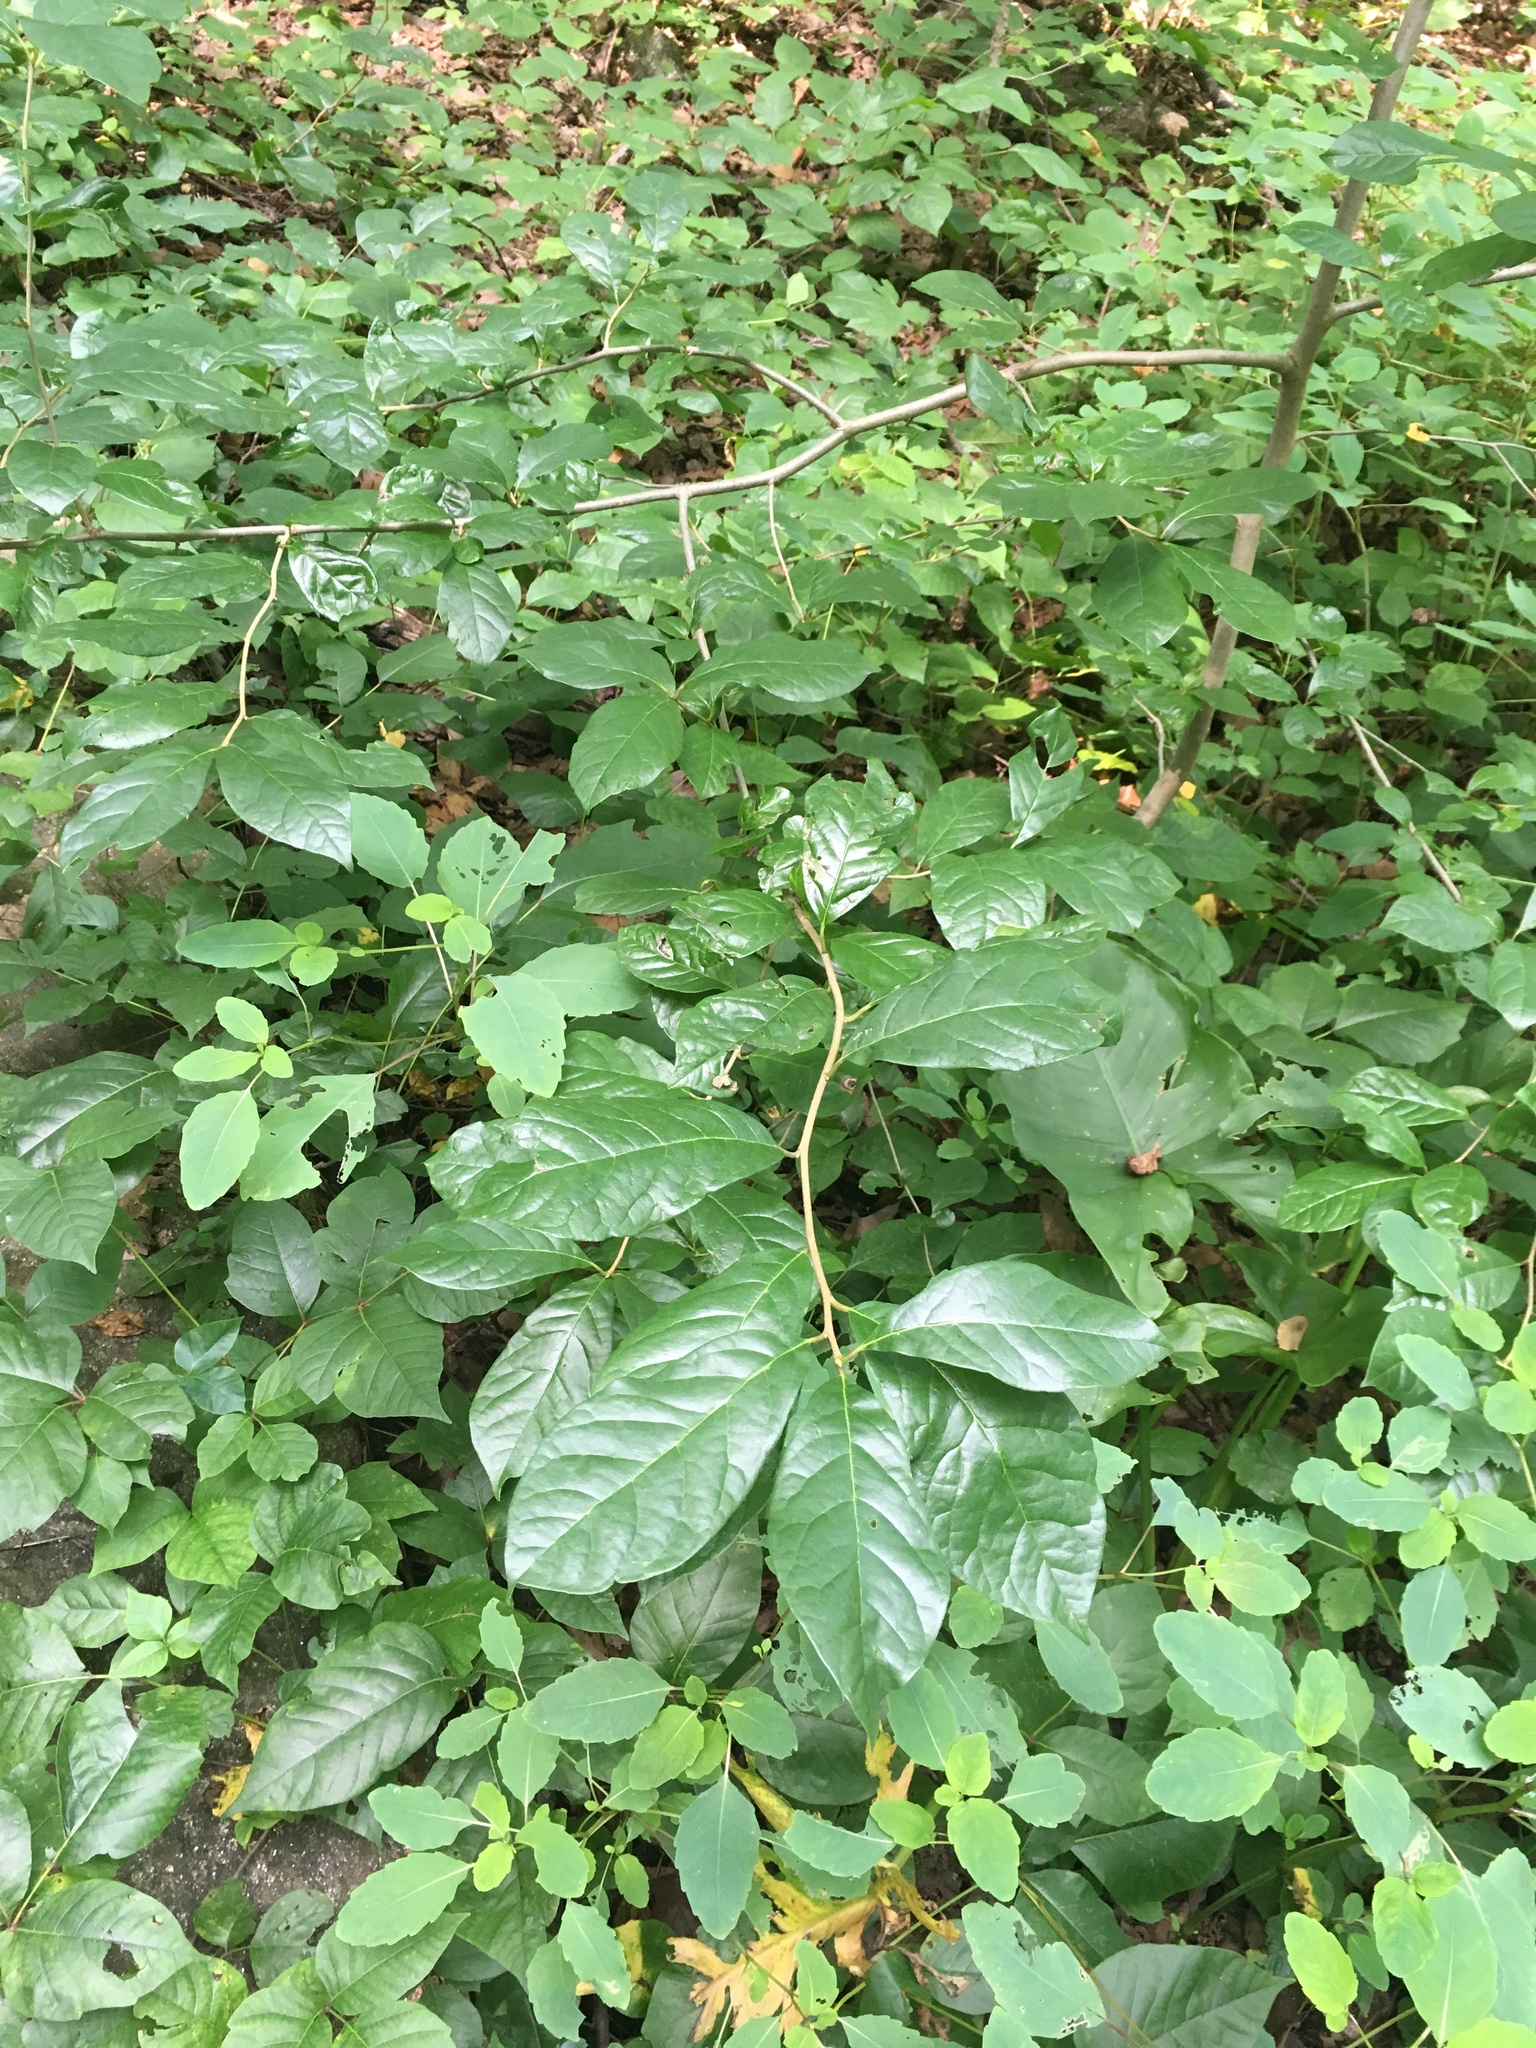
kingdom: Plantae
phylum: Tracheophyta
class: Magnoliopsida
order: Cornales
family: Nyssaceae
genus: Nyssa
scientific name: Nyssa sylvatica
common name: Black tupelo
